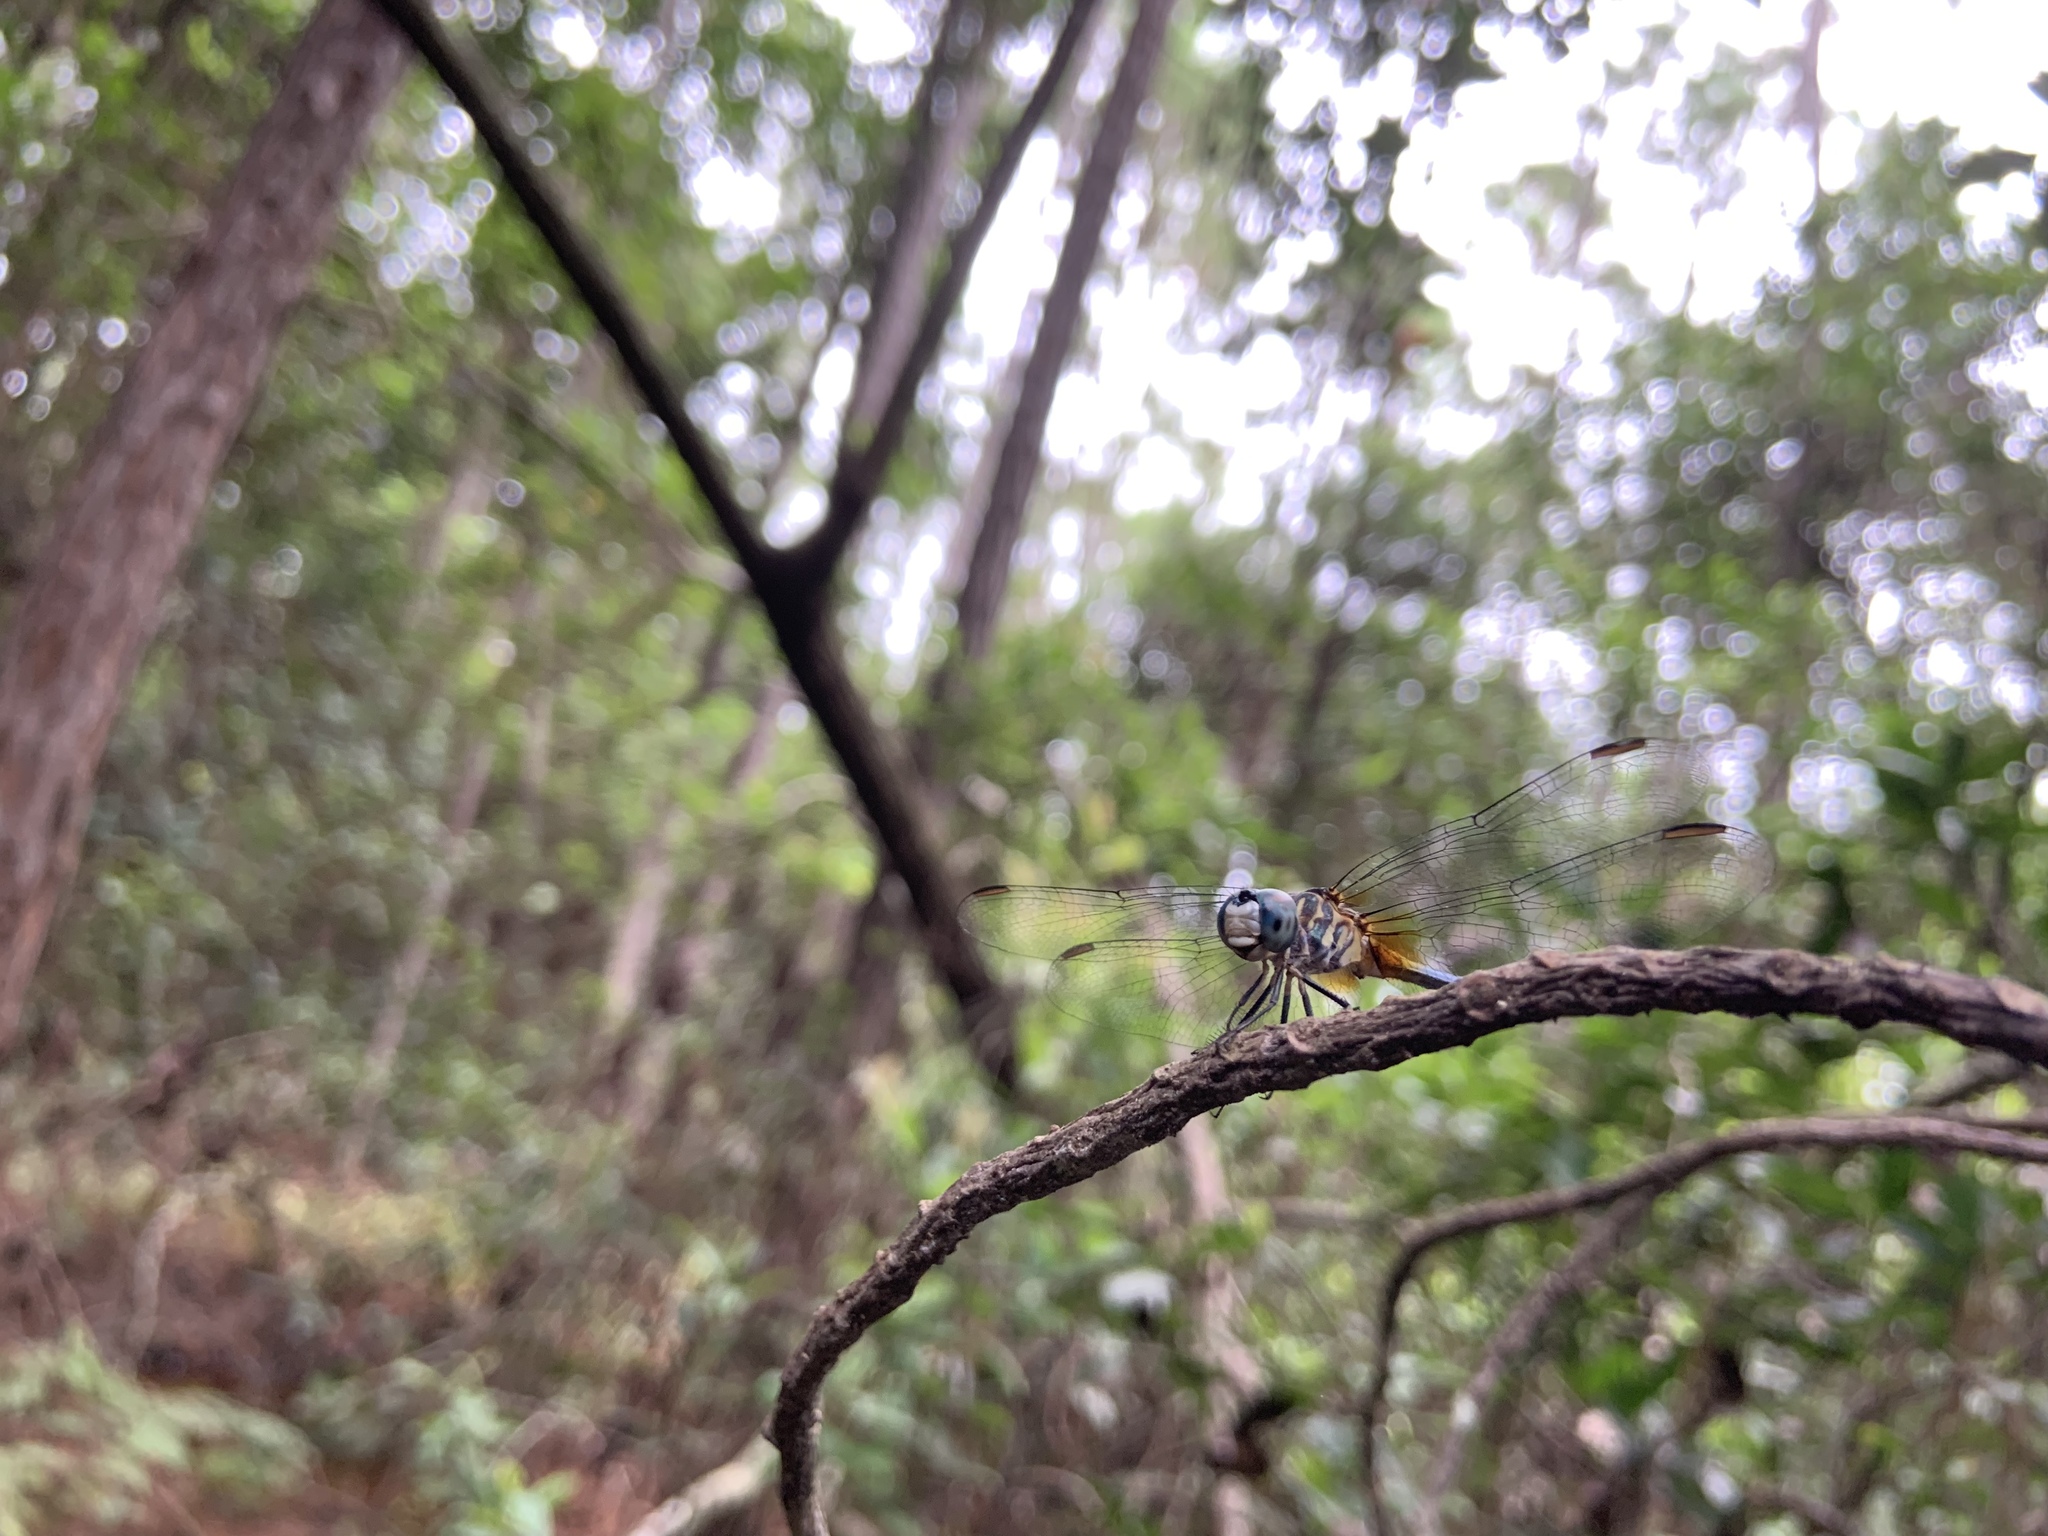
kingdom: Animalia
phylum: Arthropoda
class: Insecta
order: Odonata
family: Libellulidae
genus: Pachydiplax
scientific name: Pachydiplax longipennis
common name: Blue dasher
